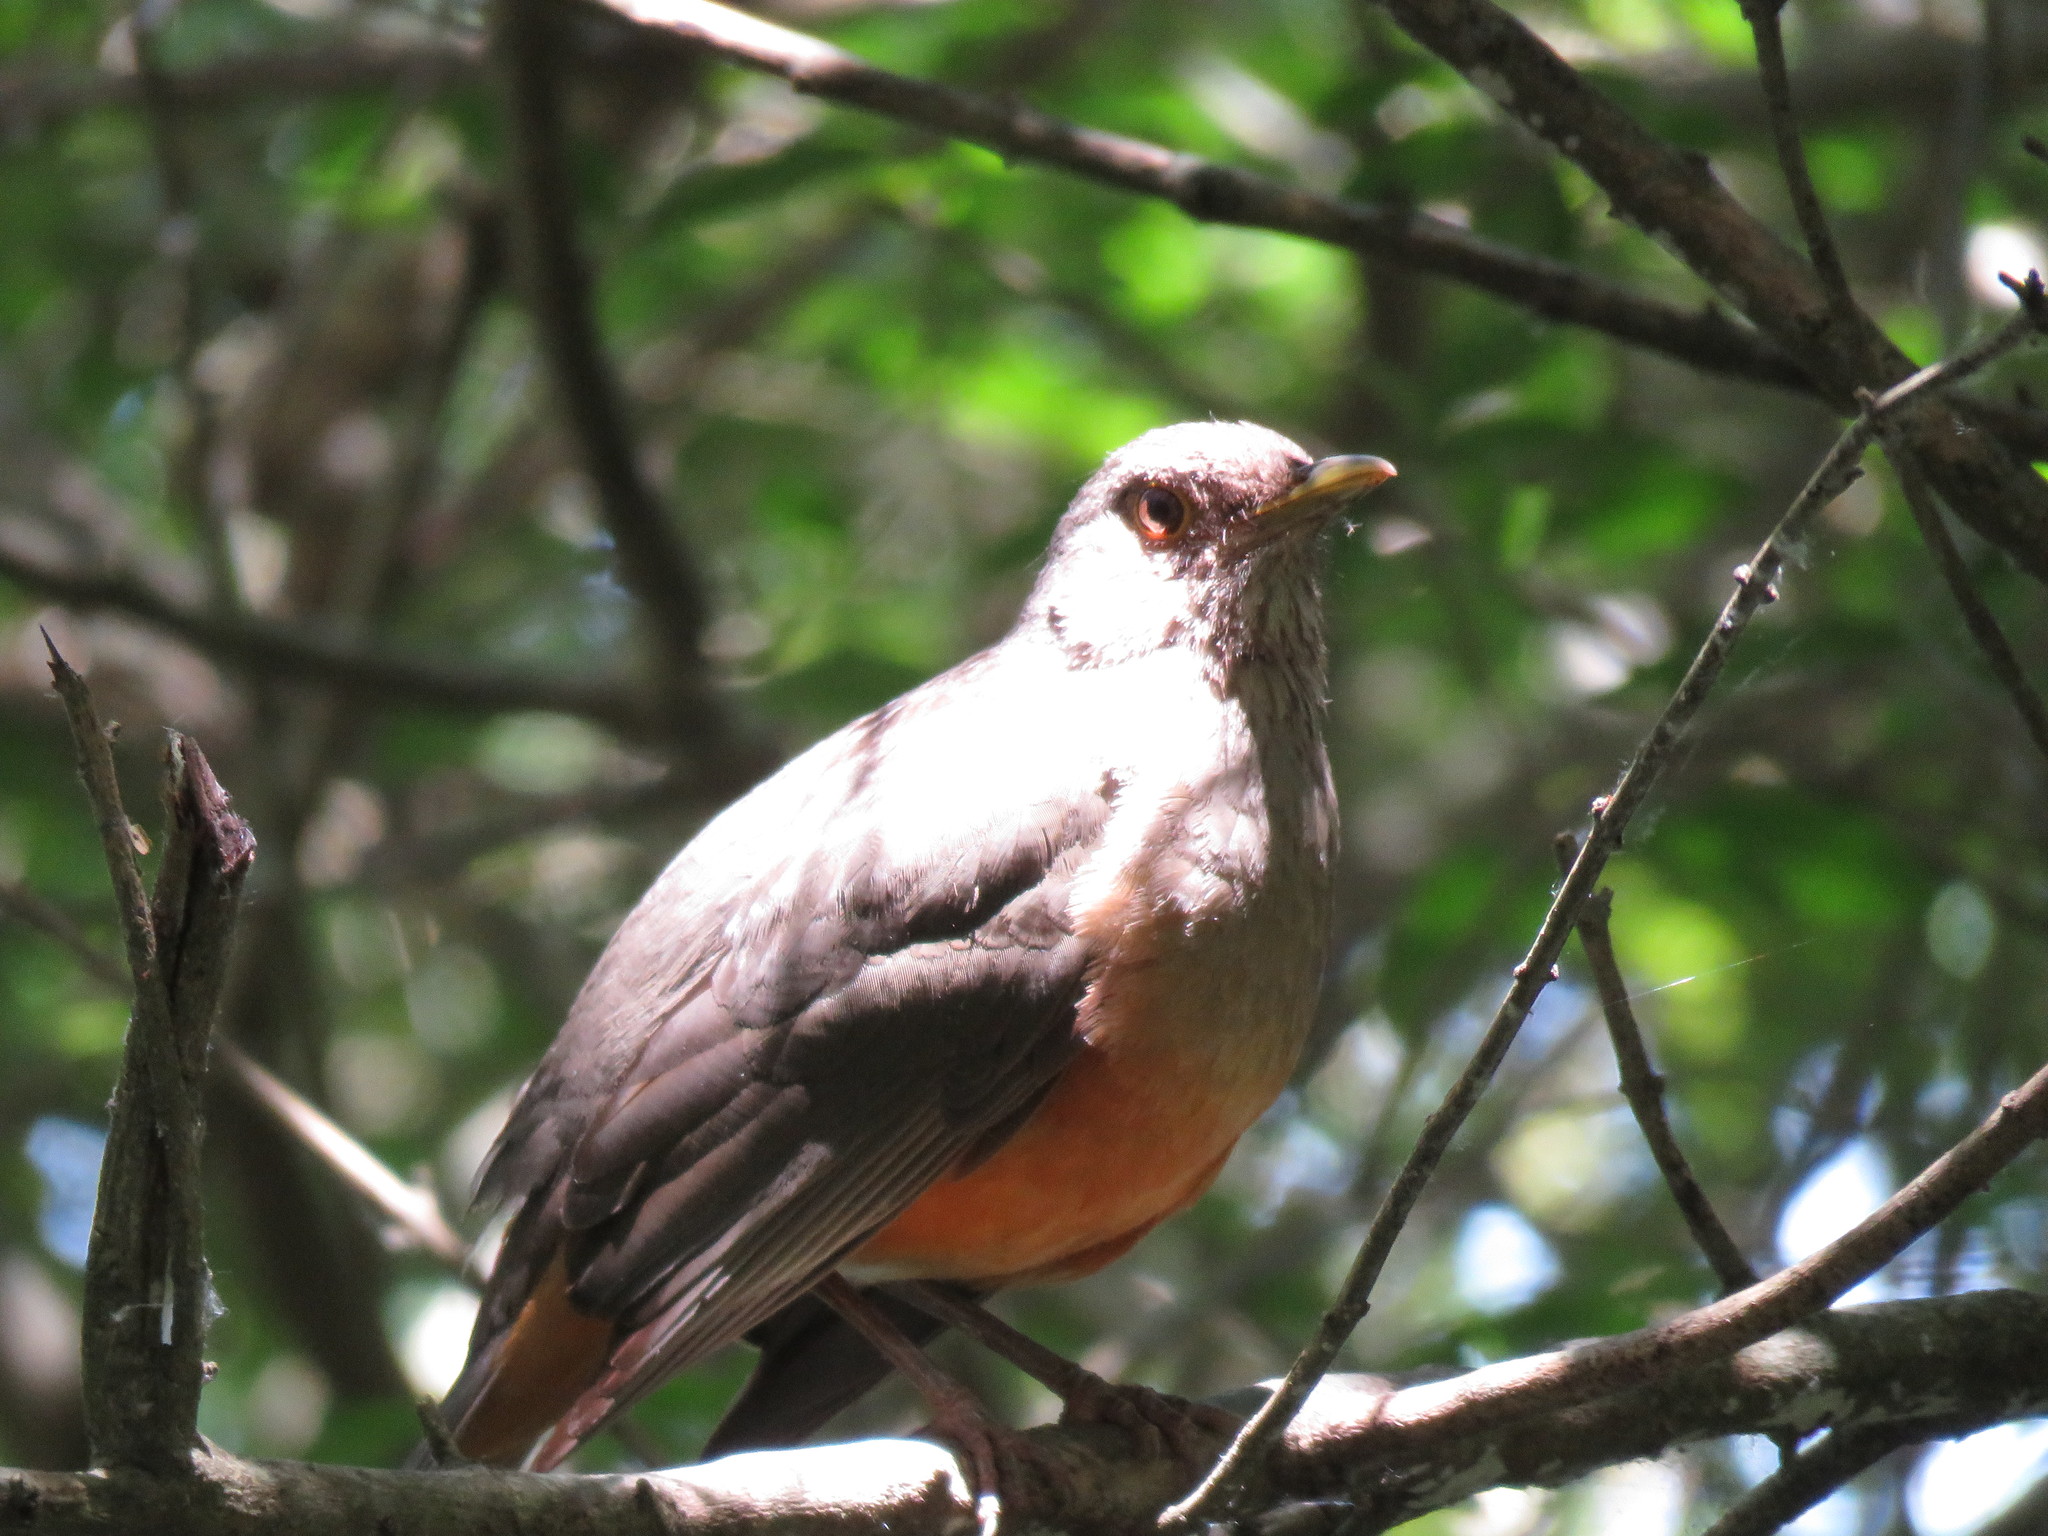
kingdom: Animalia
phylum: Chordata
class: Aves
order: Passeriformes
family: Turdidae
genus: Turdus
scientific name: Turdus rufiventris
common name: Rufous-bellied thrush
